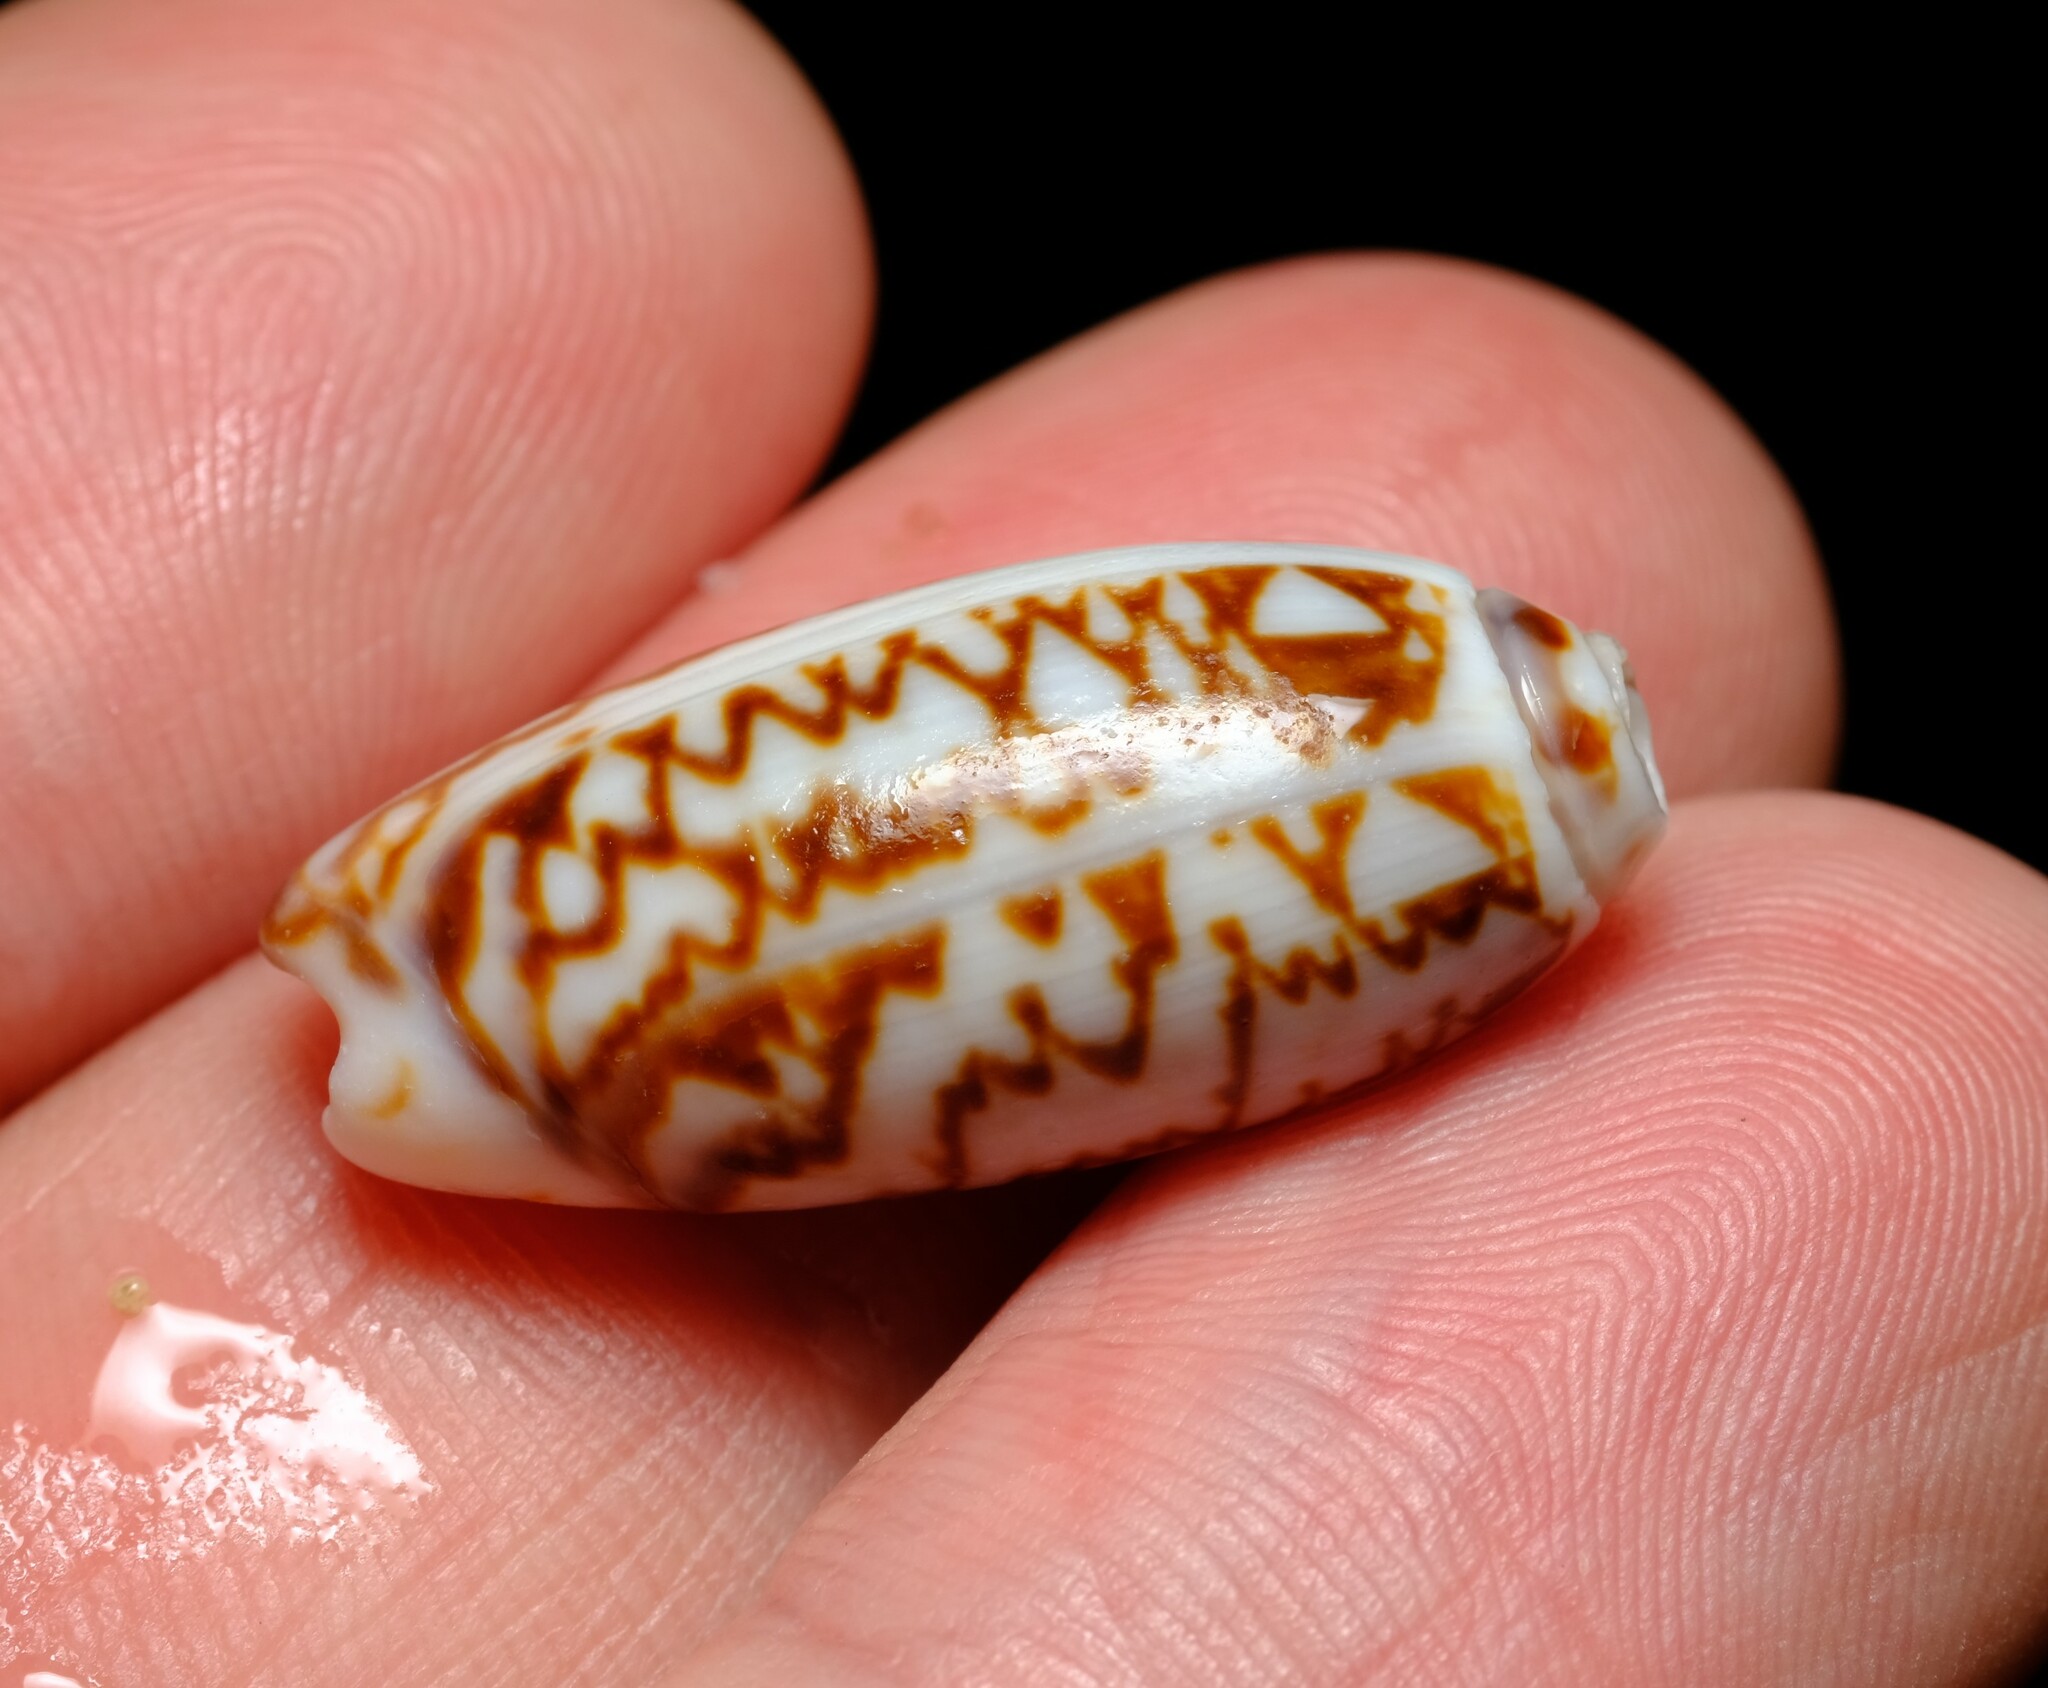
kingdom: Animalia
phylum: Mollusca
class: Gastropoda
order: Neogastropoda
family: Olividae
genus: Oliva
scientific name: Oliva oliva
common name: Common olive
